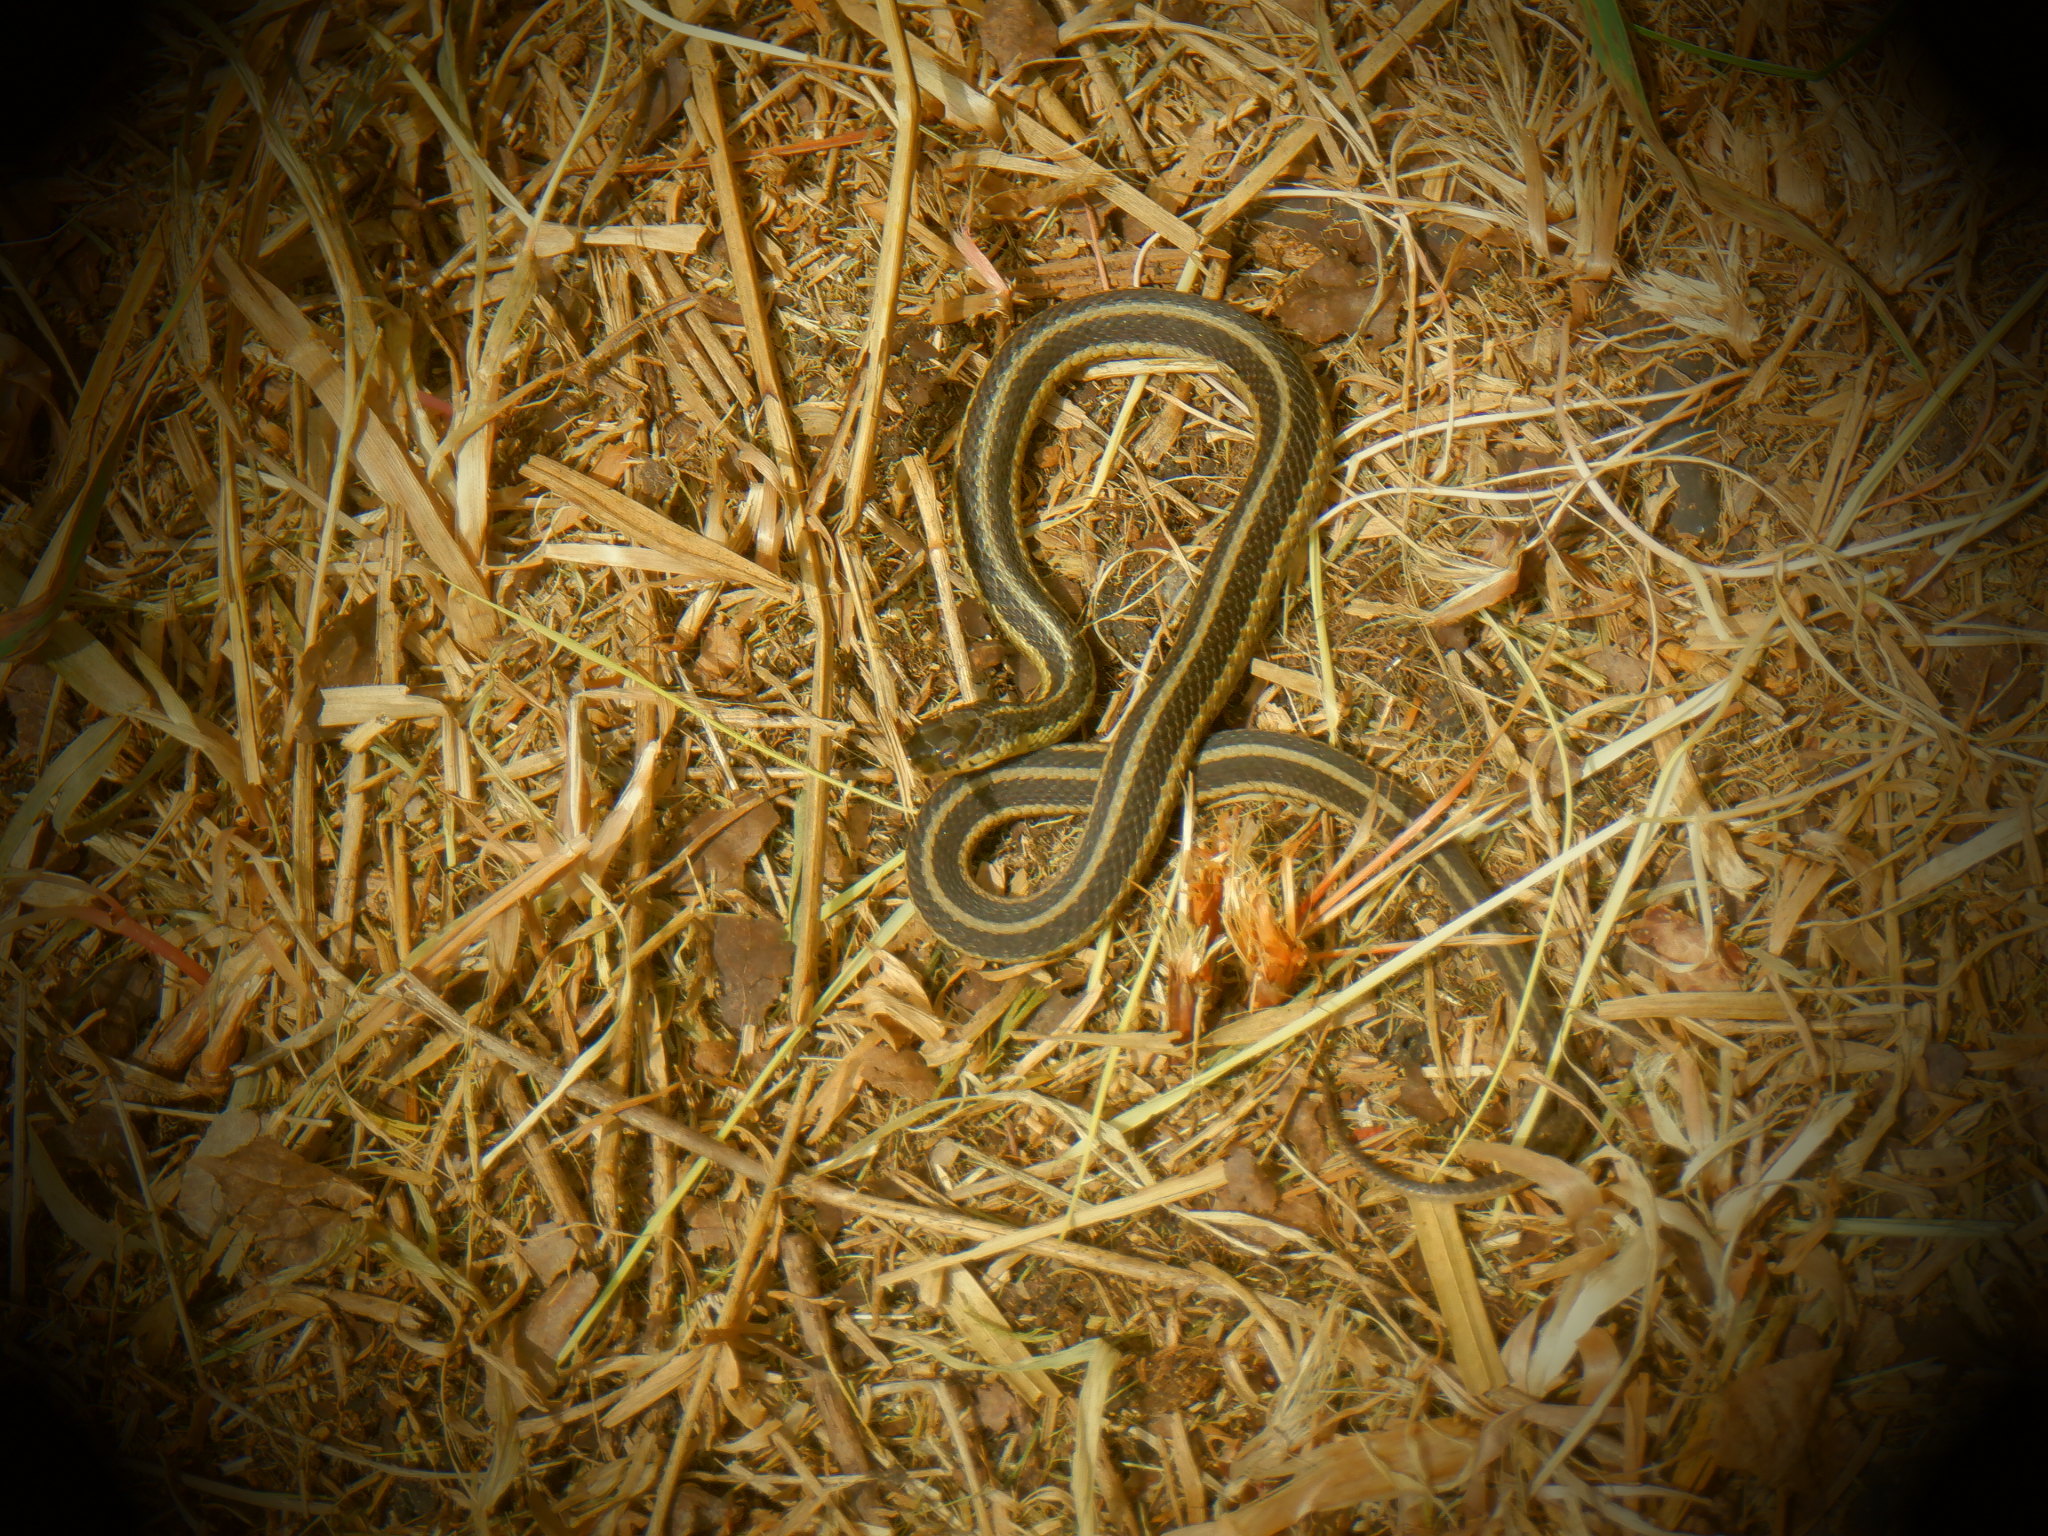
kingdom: Animalia
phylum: Chordata
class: Squamata
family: Colubridae
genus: Thamnophis
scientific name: Thamnophis sirtalis
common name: Common garter snake
